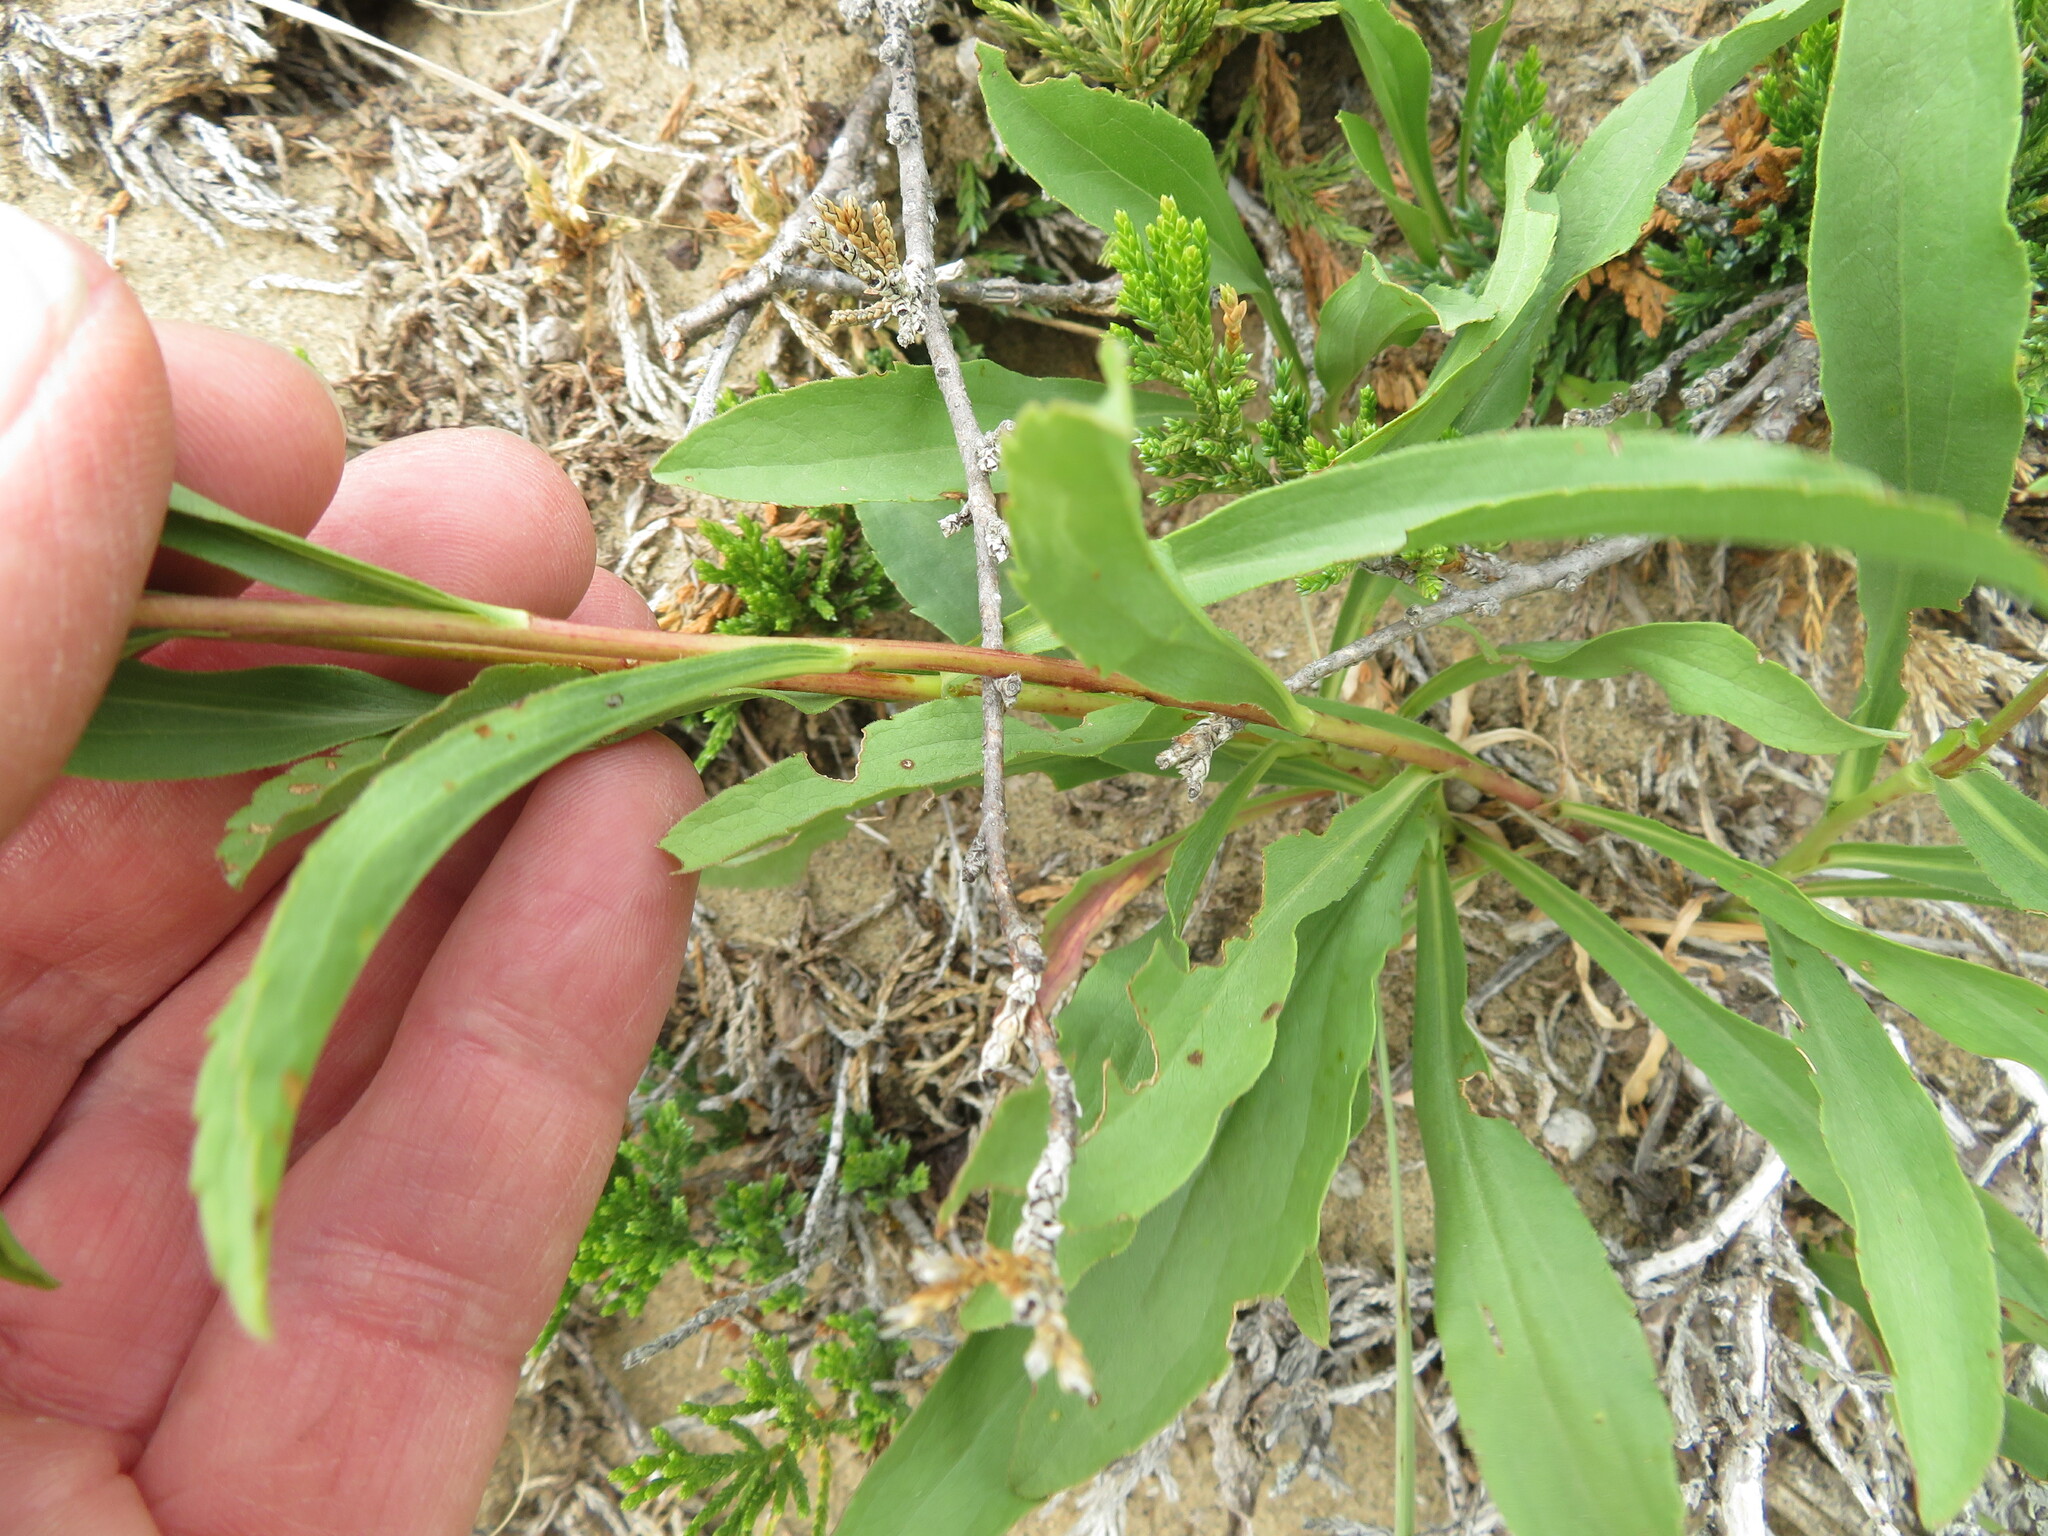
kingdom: Plantae
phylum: Tracheophyta
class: Magnoliopsida
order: Asterales
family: Asteraceae
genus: Solidago
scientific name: Solidago missouriensis
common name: Prairie goldenrod
